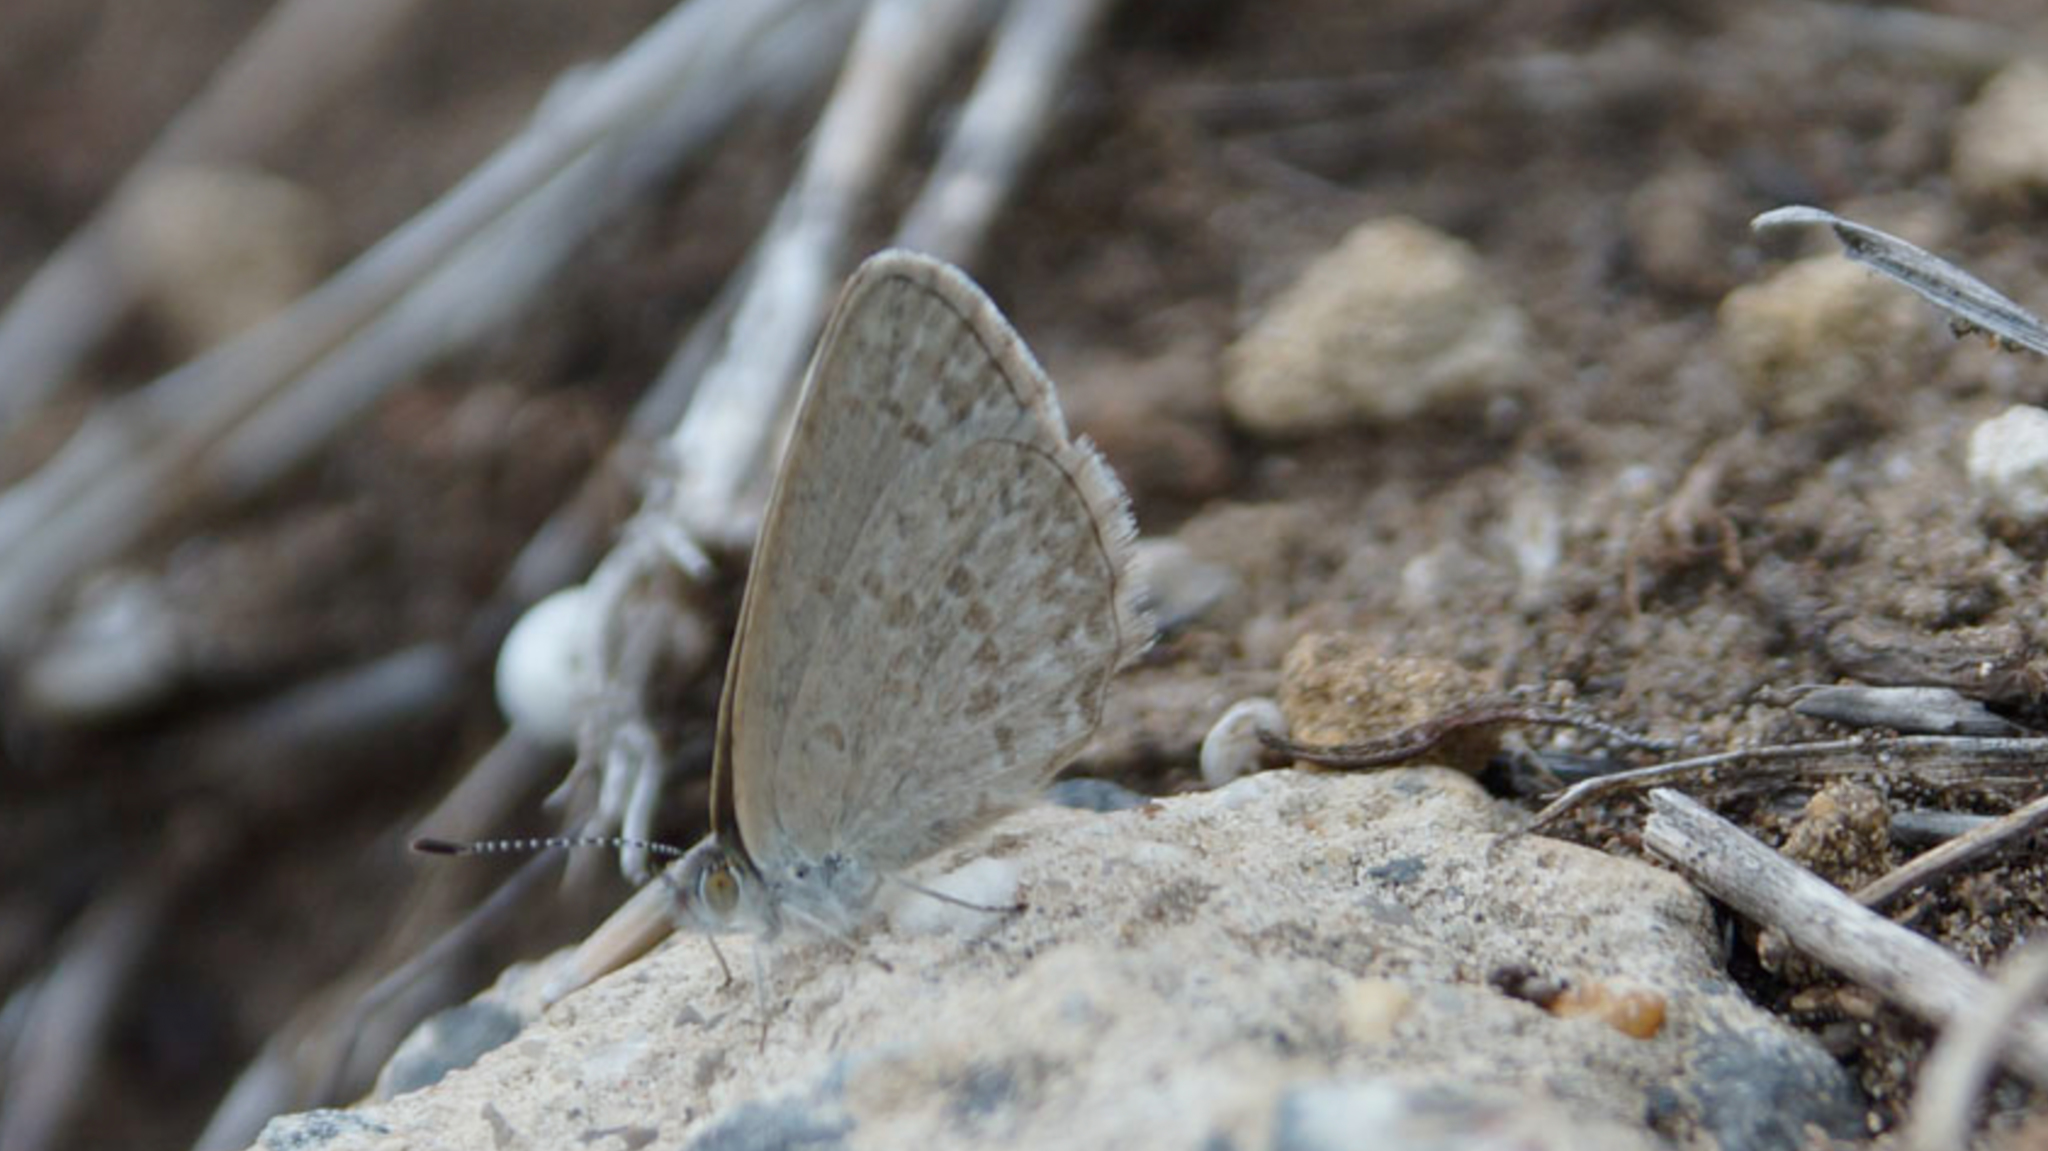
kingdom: Animalia
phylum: Arthropoda
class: Insecta
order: Lepidoptera
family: Lycaenidae
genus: Zizina
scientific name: Zizina labradus
